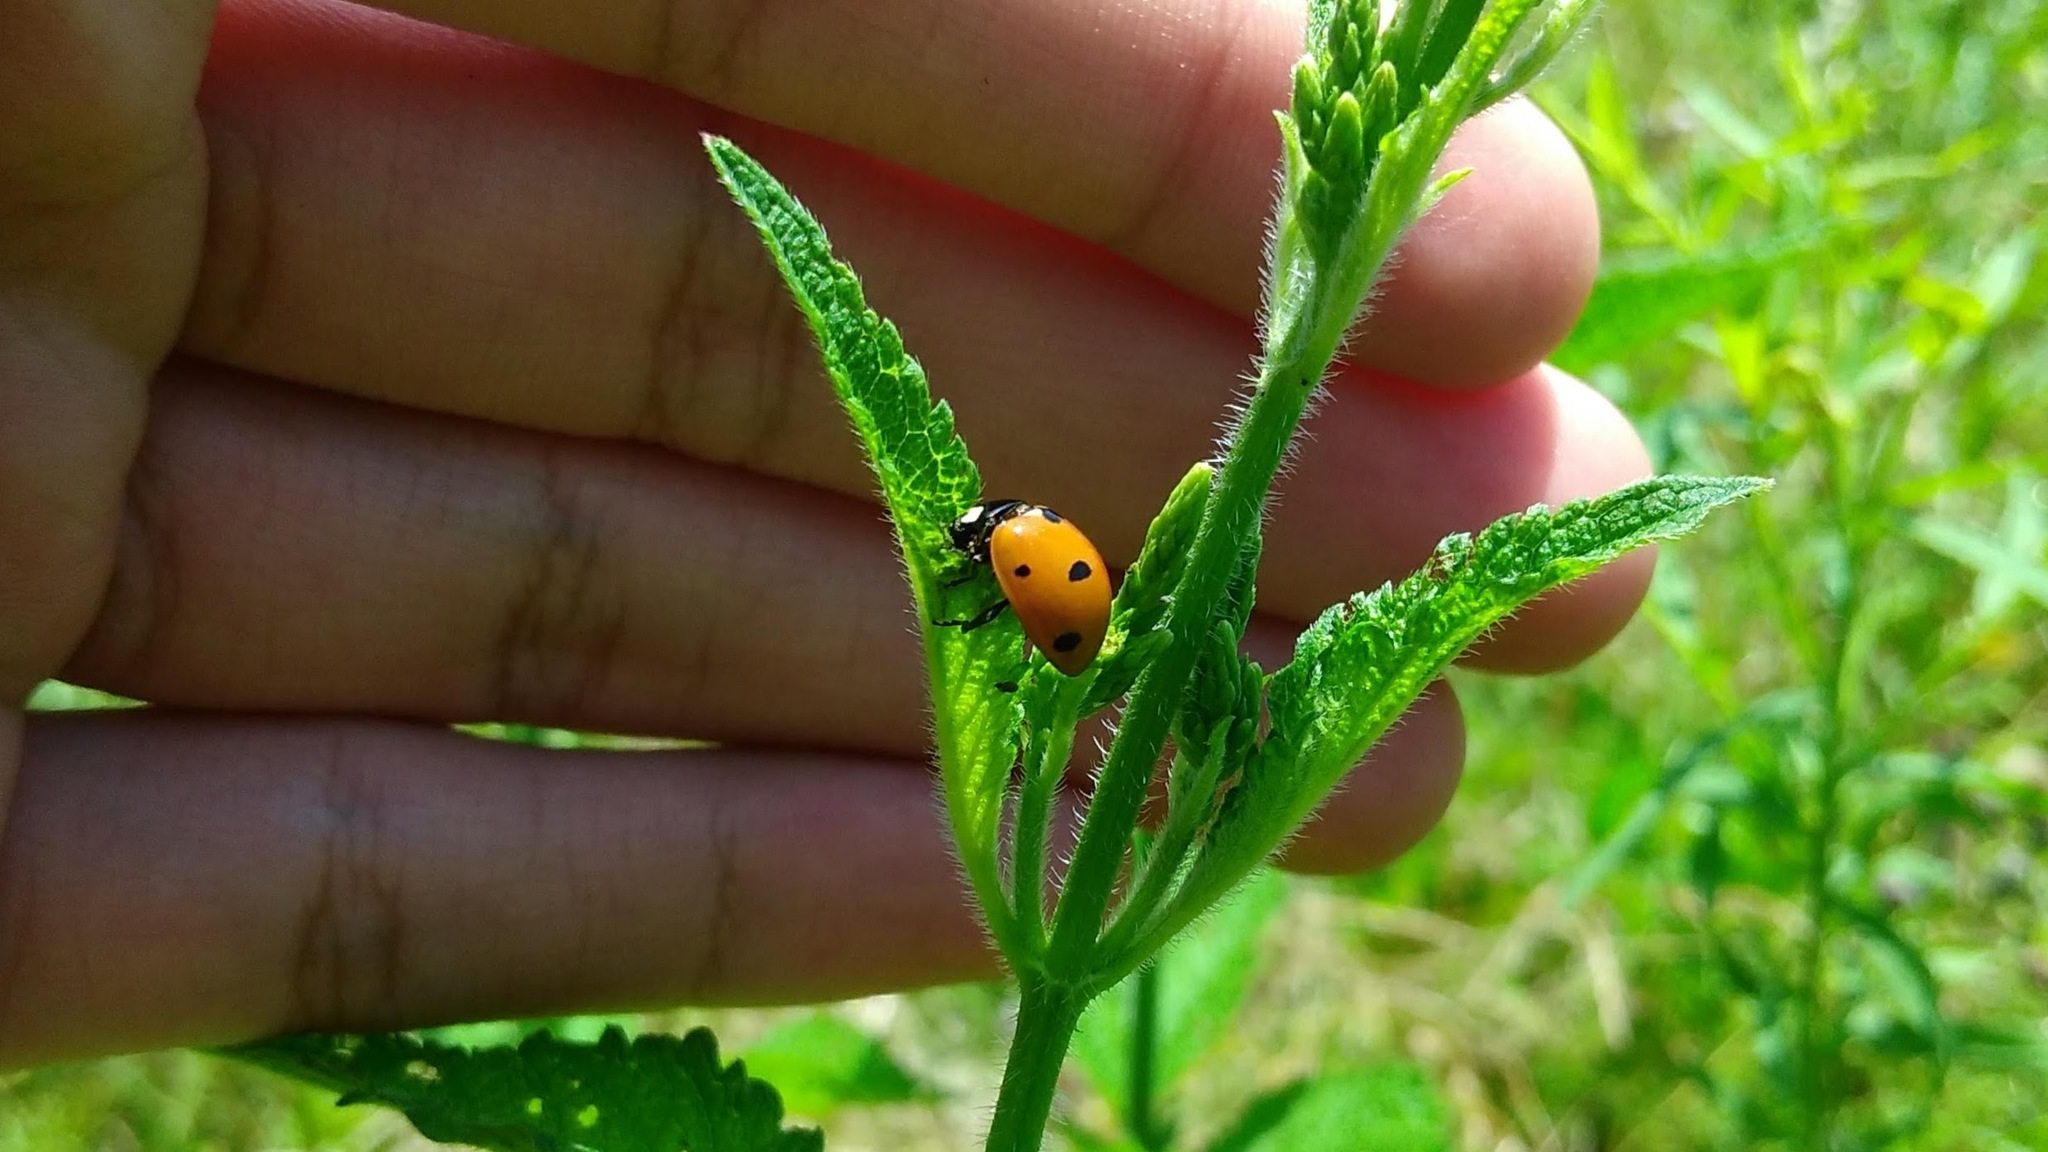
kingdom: Animalia
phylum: Arthropoda
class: Insecta
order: Coleoptera
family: Coccinellidae
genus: Coccinella
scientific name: Coccinella septempunctata
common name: Sevenspotted lady beetle
